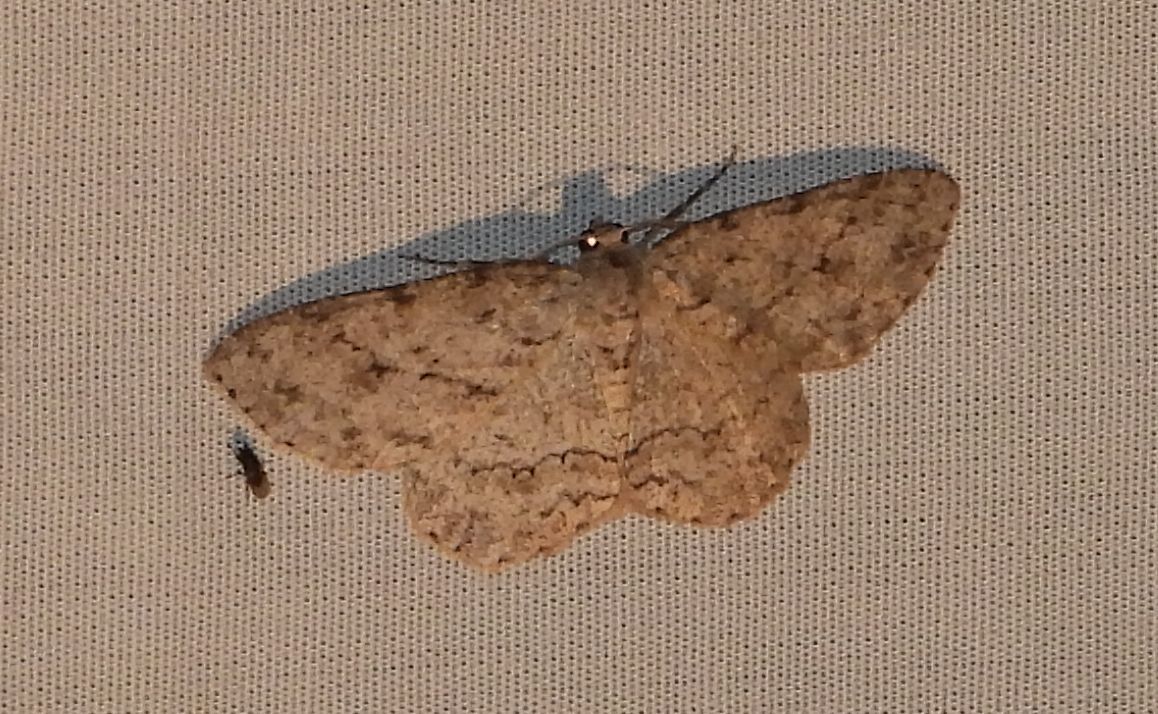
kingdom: Animalia
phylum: Arthropoda
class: Insecta
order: Lepidoptera
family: Geometridae
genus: Ectropis
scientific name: Ectropis crepuscularia
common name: Engrailed
